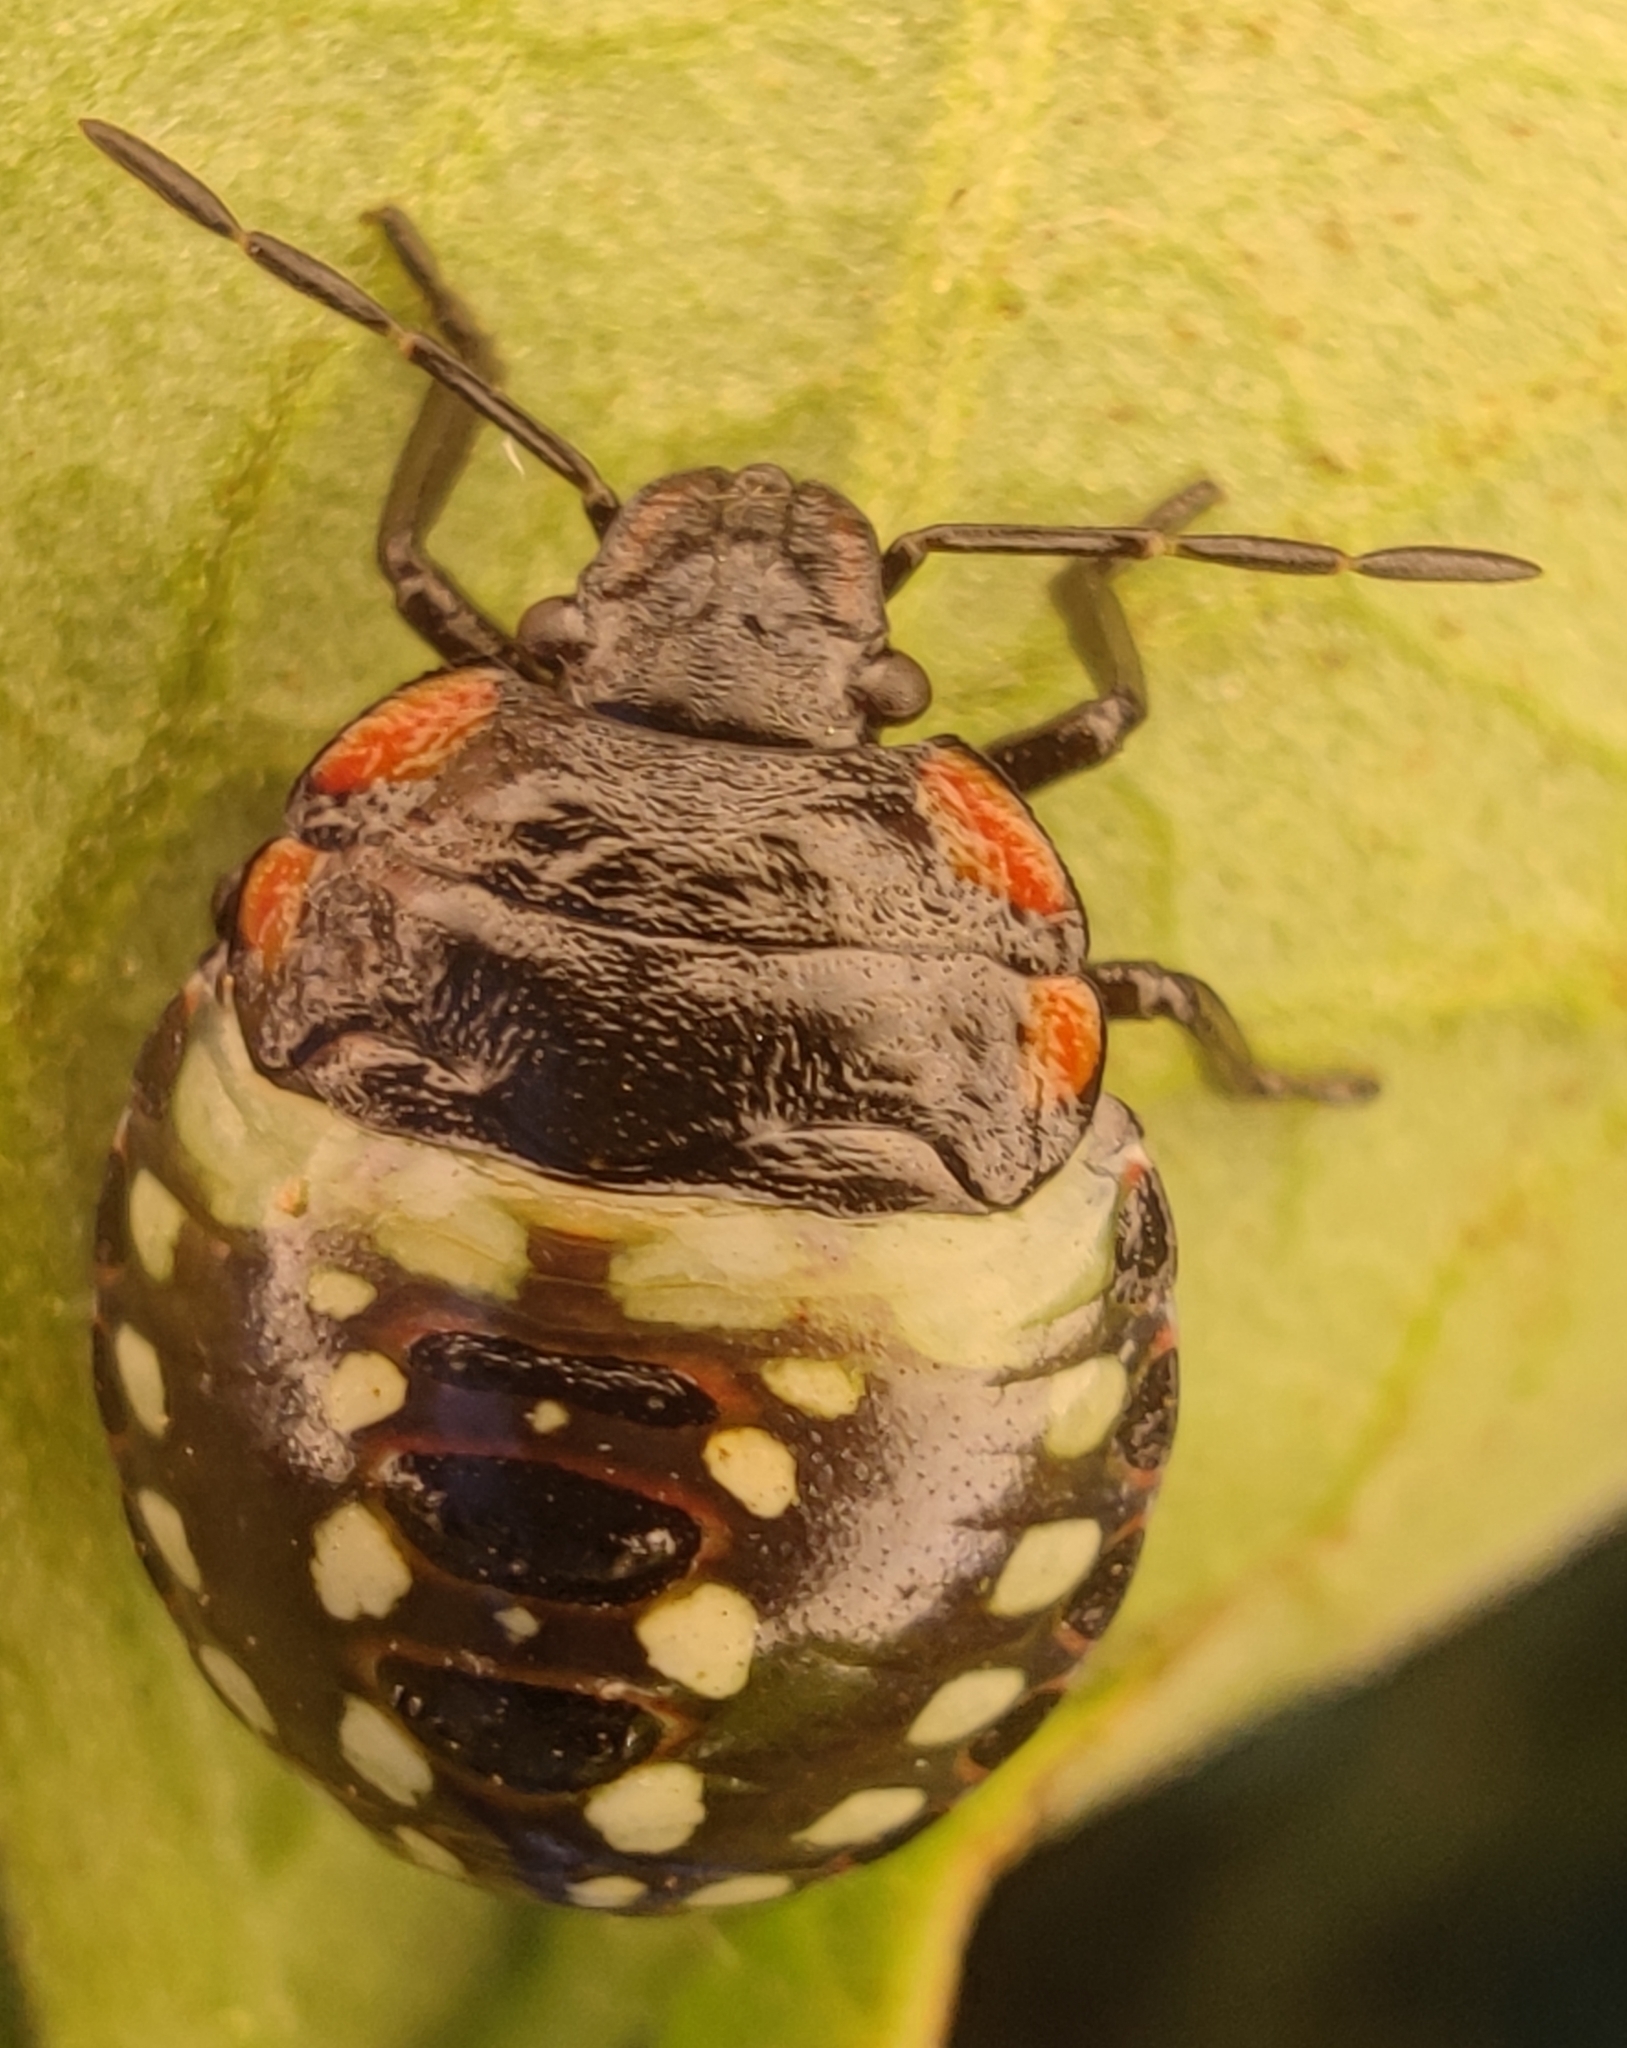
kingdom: Animalia
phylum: Arthropoda
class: Insecta
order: Hemiptera
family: Pentatomidae
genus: Nezara
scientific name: Nezara viridula
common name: Southern green stink bug
